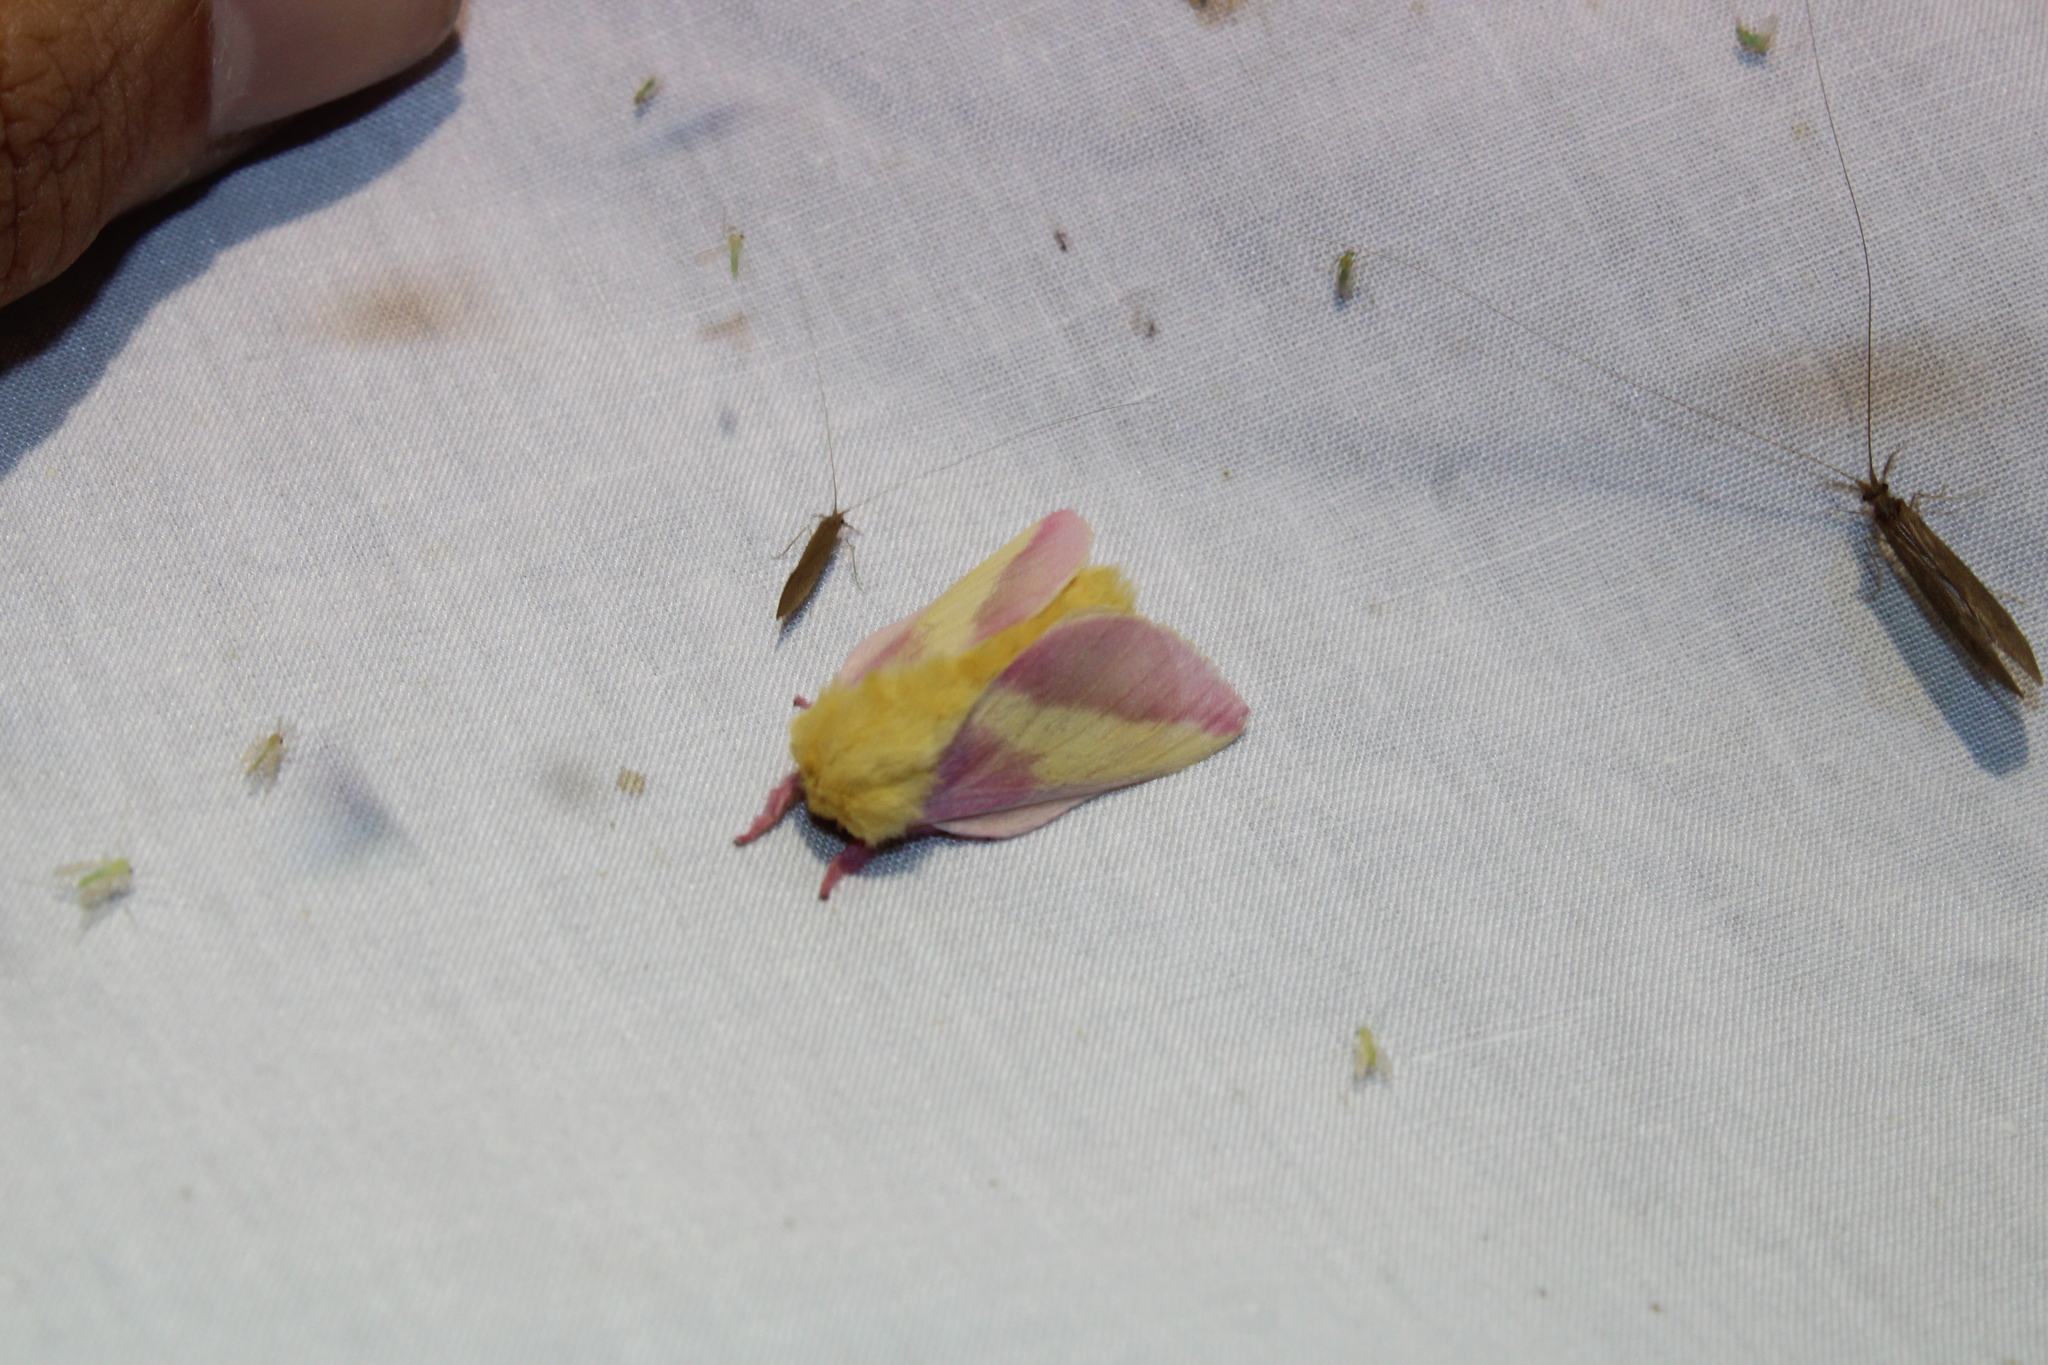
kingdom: Animalia
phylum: Arthropoda
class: Insecta
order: Lepidoptera
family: Saturniidae
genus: Dryocampa
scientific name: Dryocampa rubicunda
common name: Rosy maple moth
